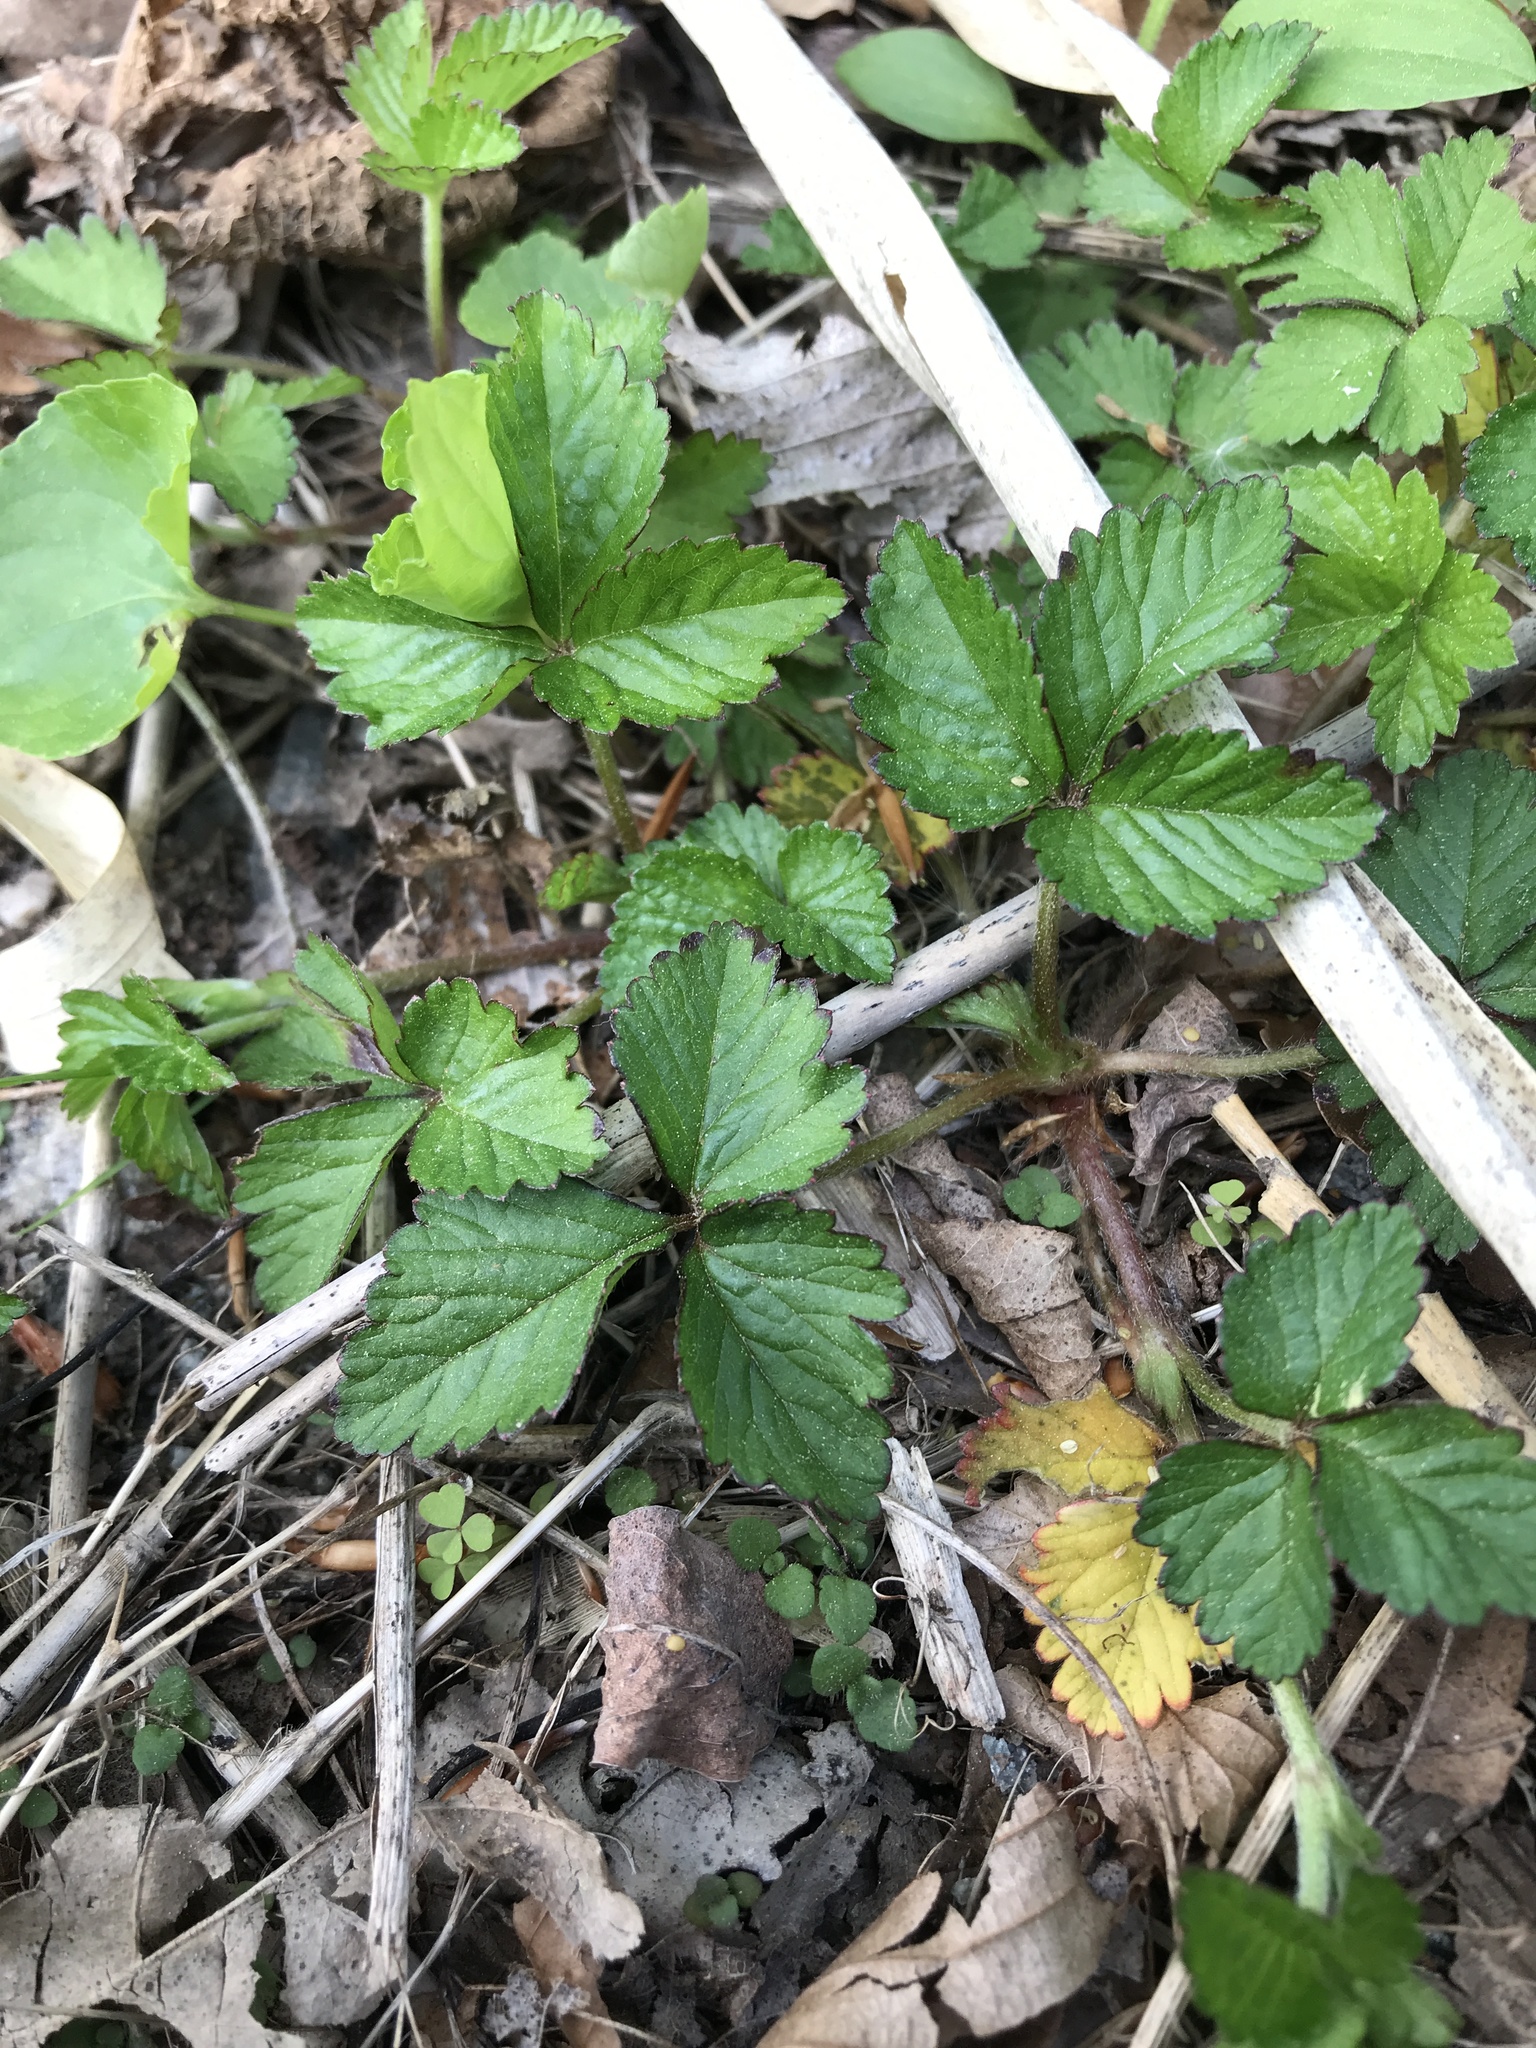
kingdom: Plantae
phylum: Tracheophyta
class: Magnoliopsida
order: Rosales
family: Rosaceae
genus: Potentilla
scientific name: Potentilla indica
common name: Yellow-flowered strawberry
